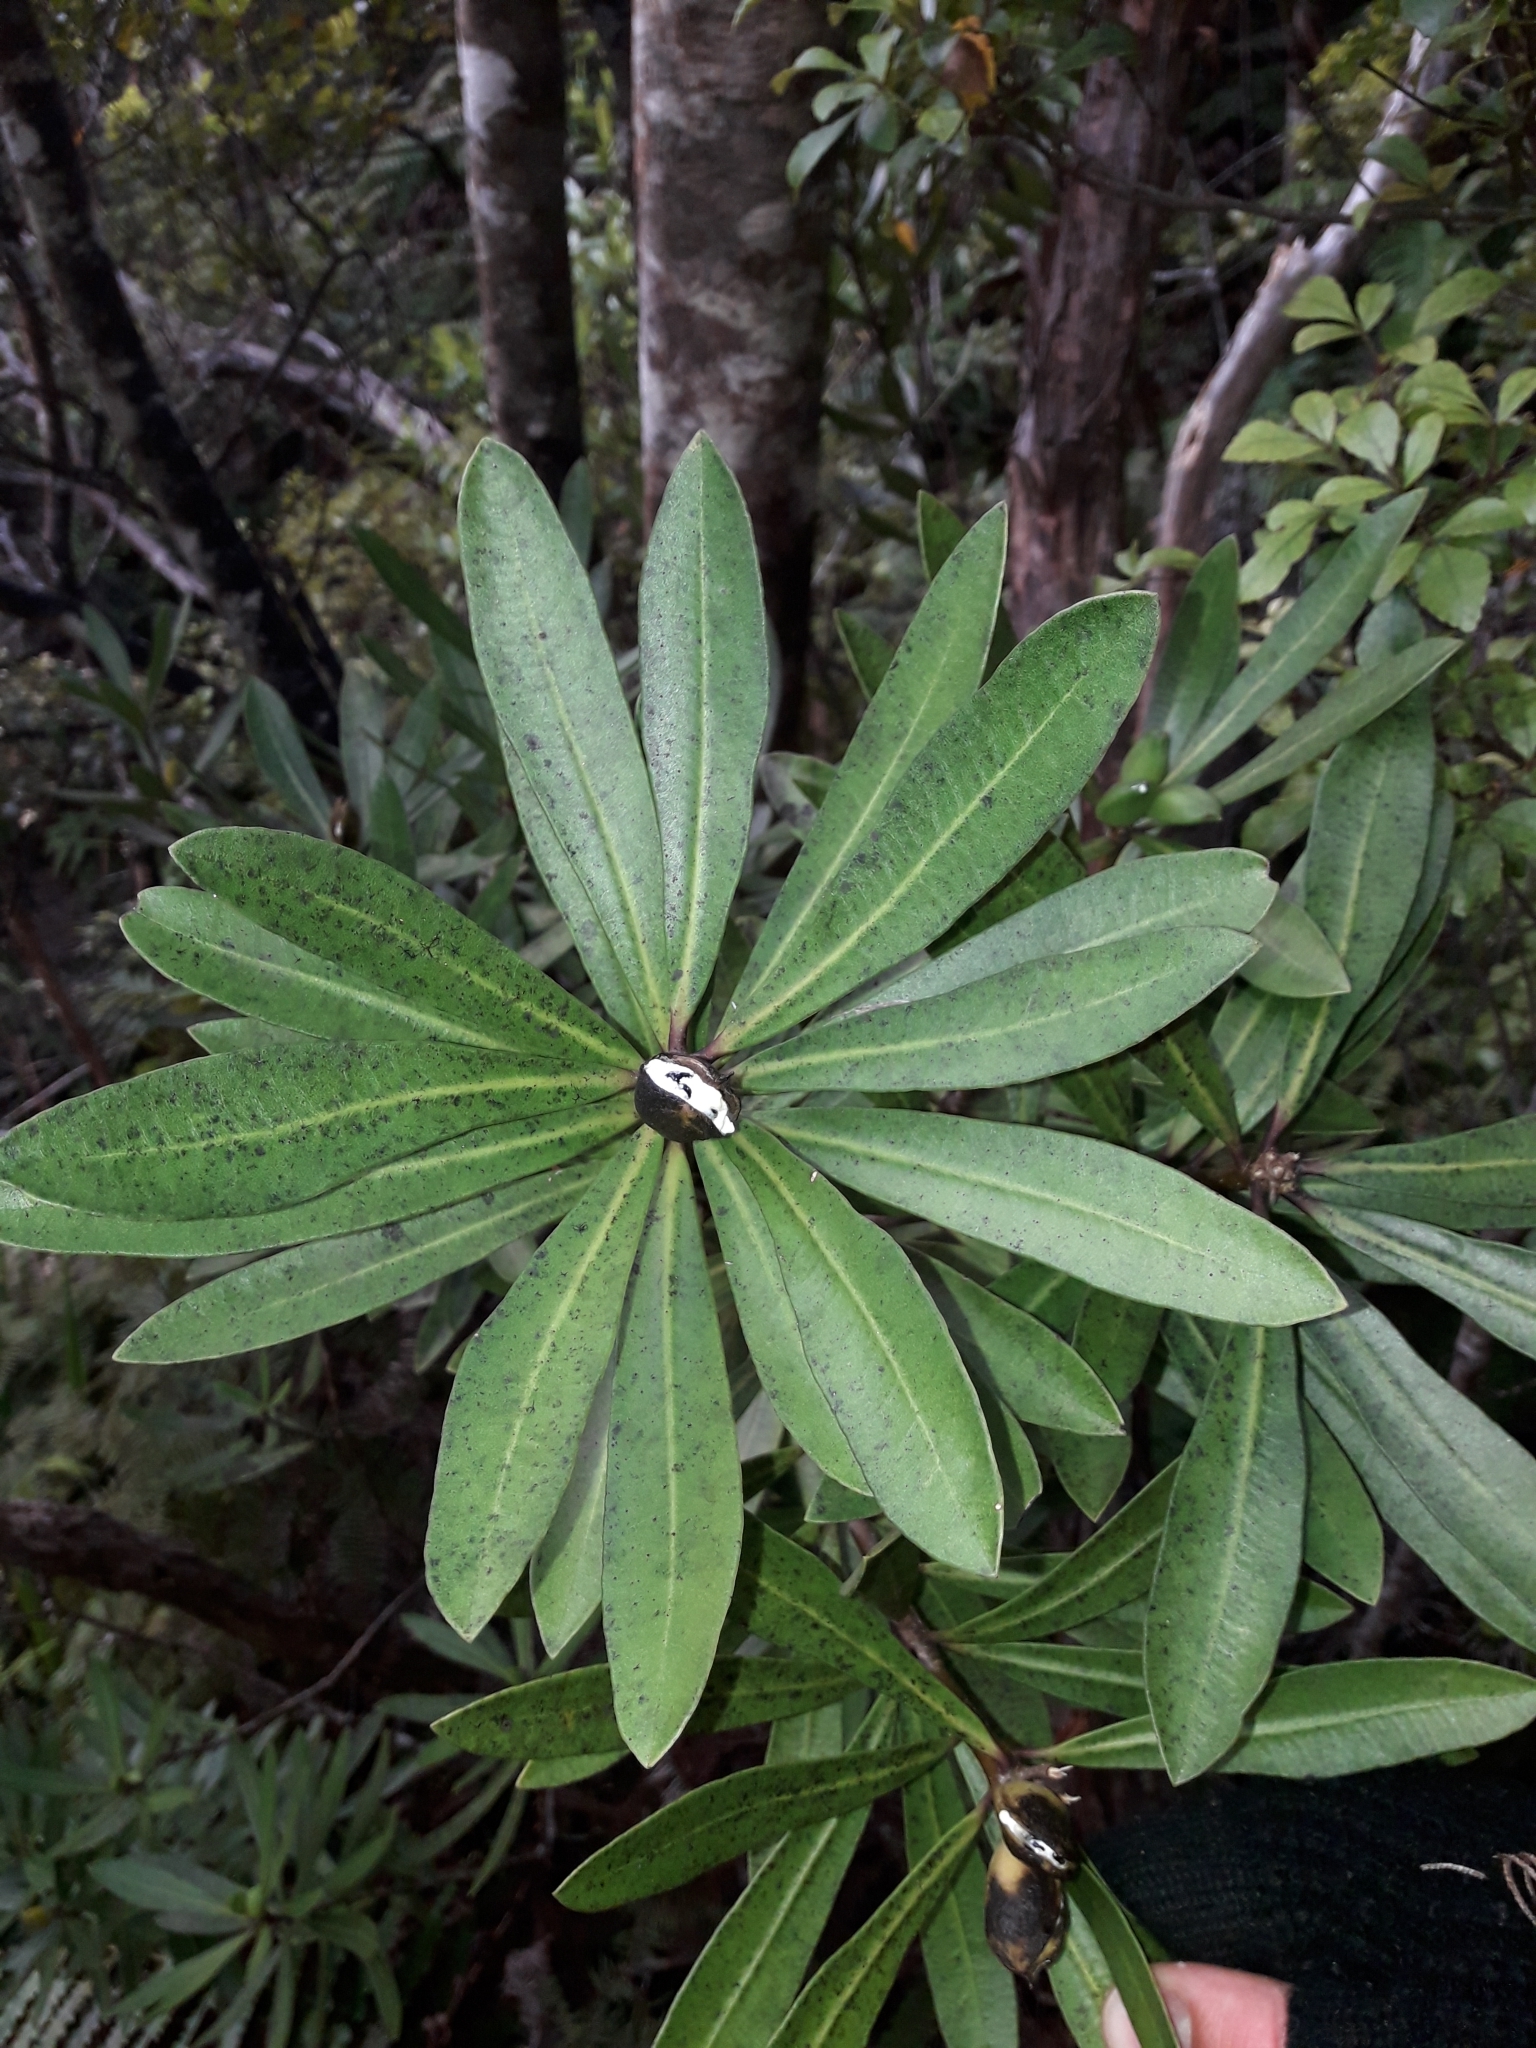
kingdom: Plantae
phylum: Tracheophyta
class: Magnoliopsida
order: Apiales
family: Pittosporaceae
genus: Pittosporum
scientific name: Pittosporum kirkii
